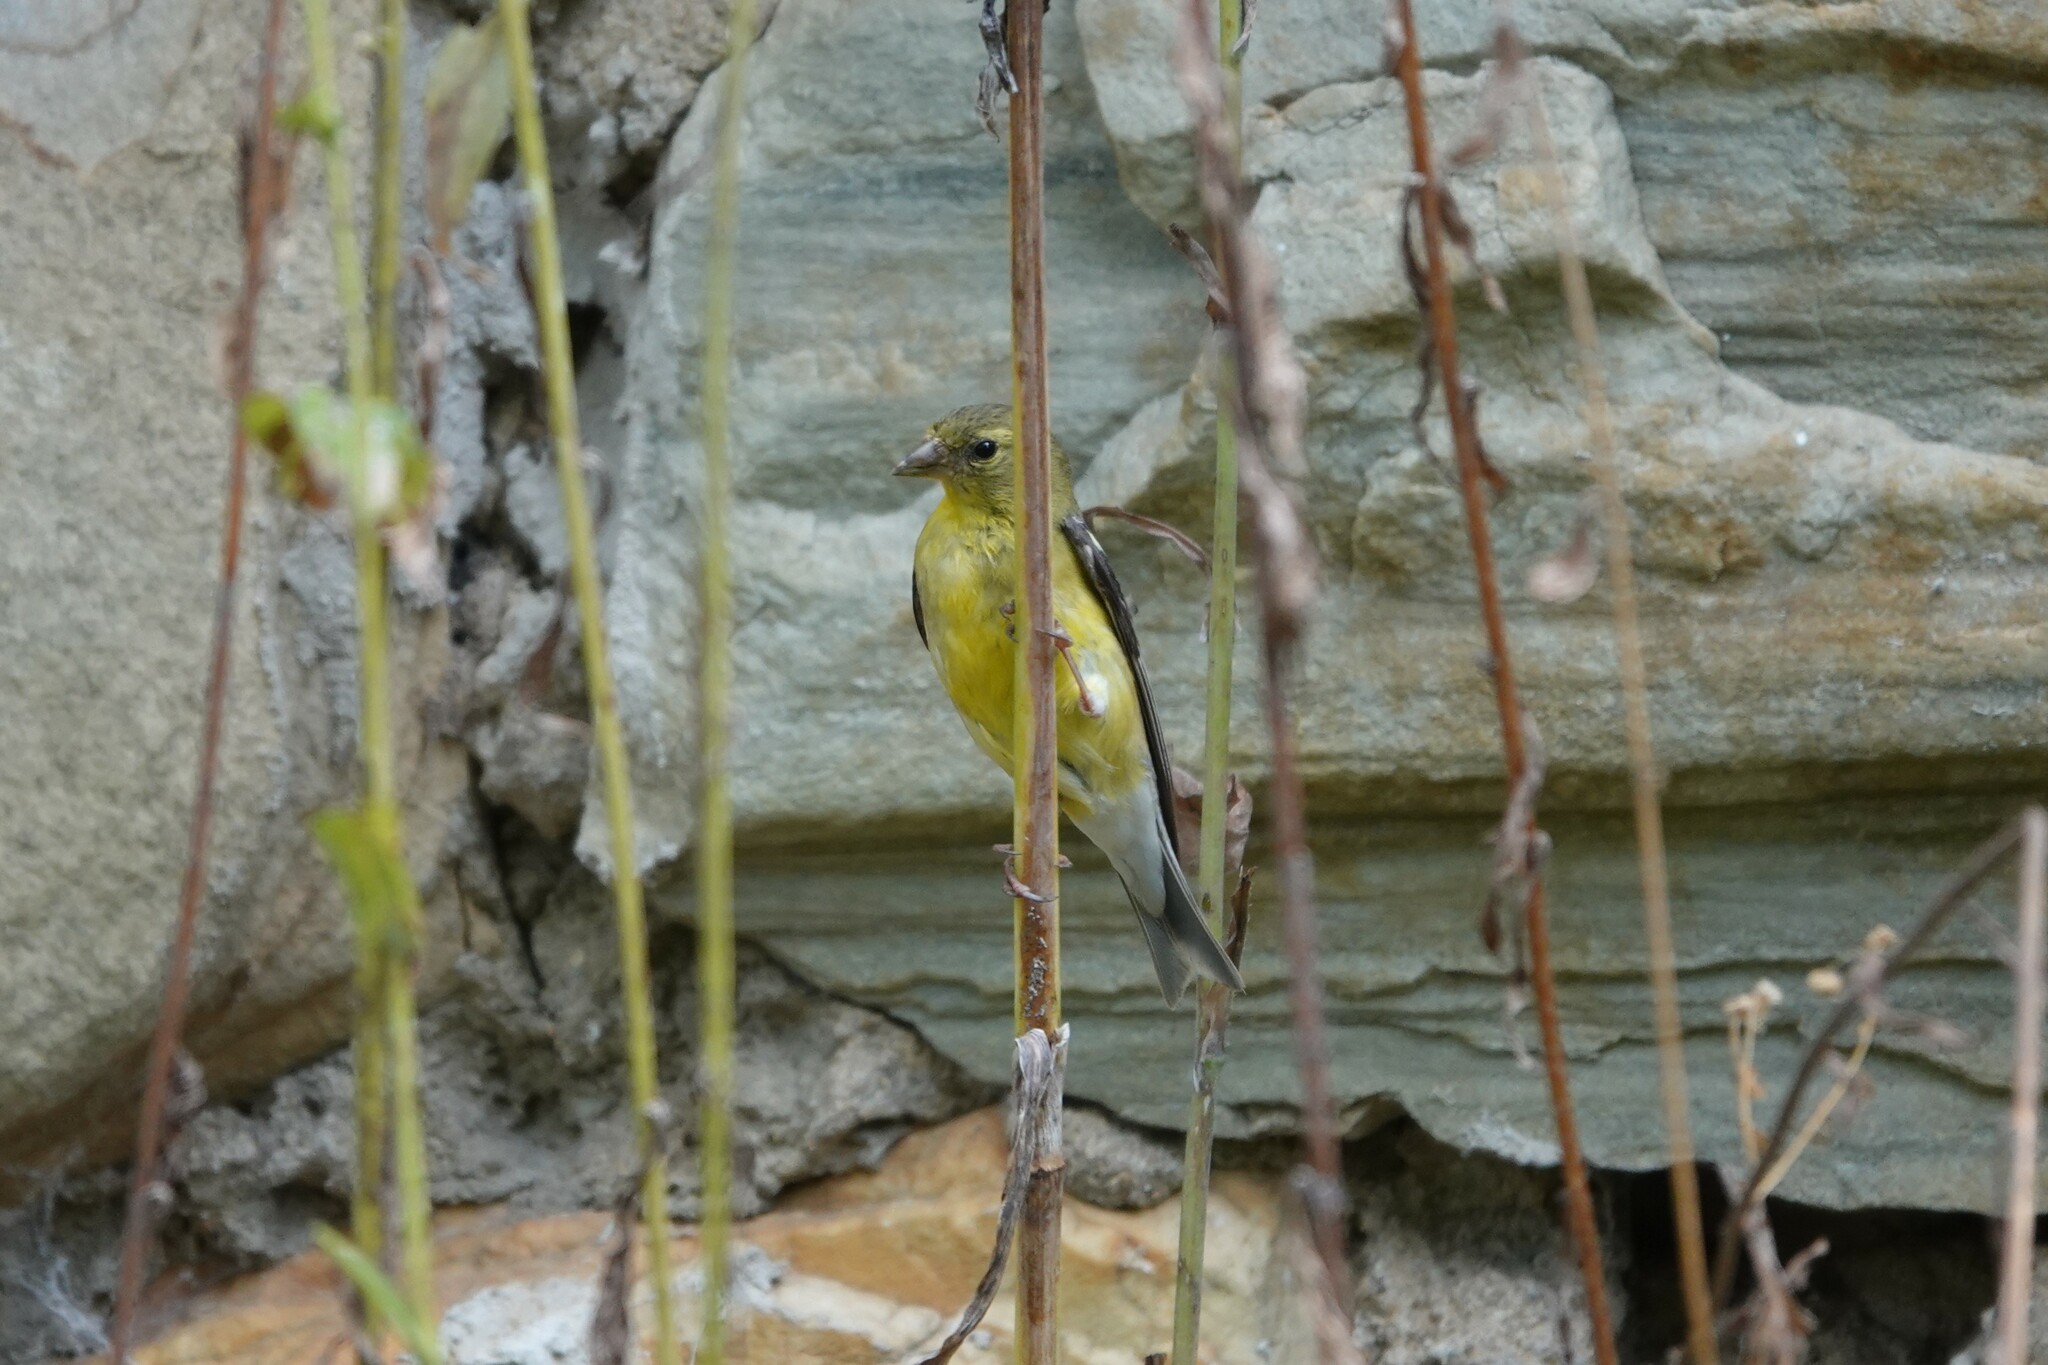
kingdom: Animalia
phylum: Chordata
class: Aves
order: Passeriformes
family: Fringillidae
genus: Spinus
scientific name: Spinus tristis
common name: American goldfinch
